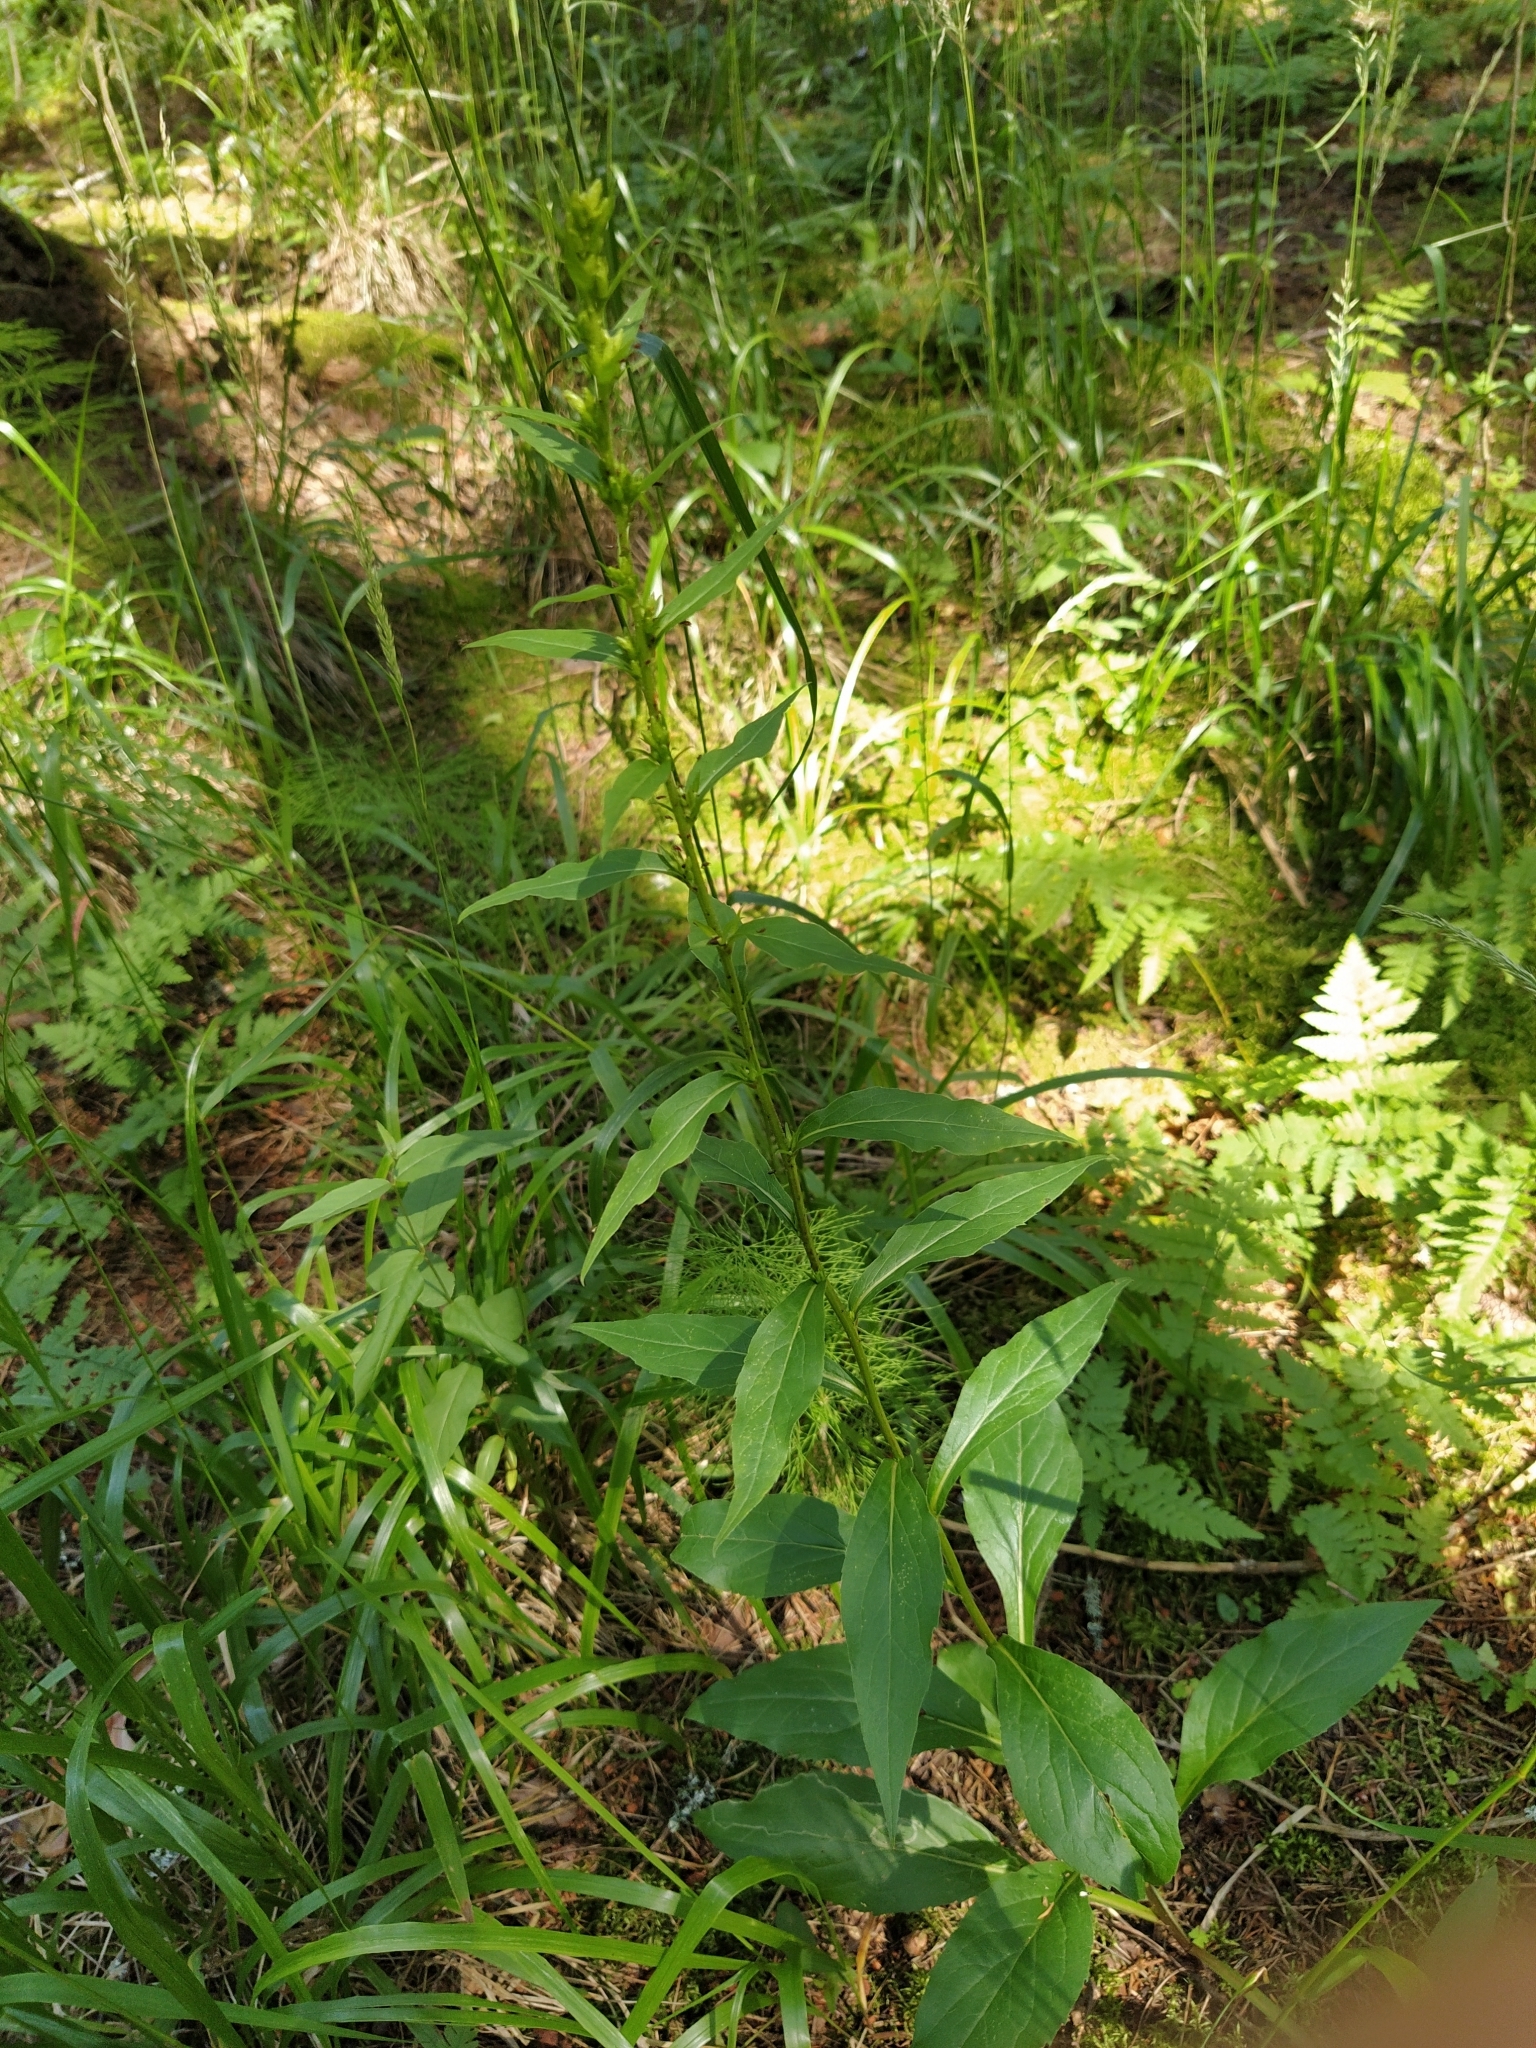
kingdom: Plantae
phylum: Tracheophyta
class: Magnoliopsida
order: Asterales
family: Asteraceae
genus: Solidago
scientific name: Solidago virgaurea
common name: Goldenrod
